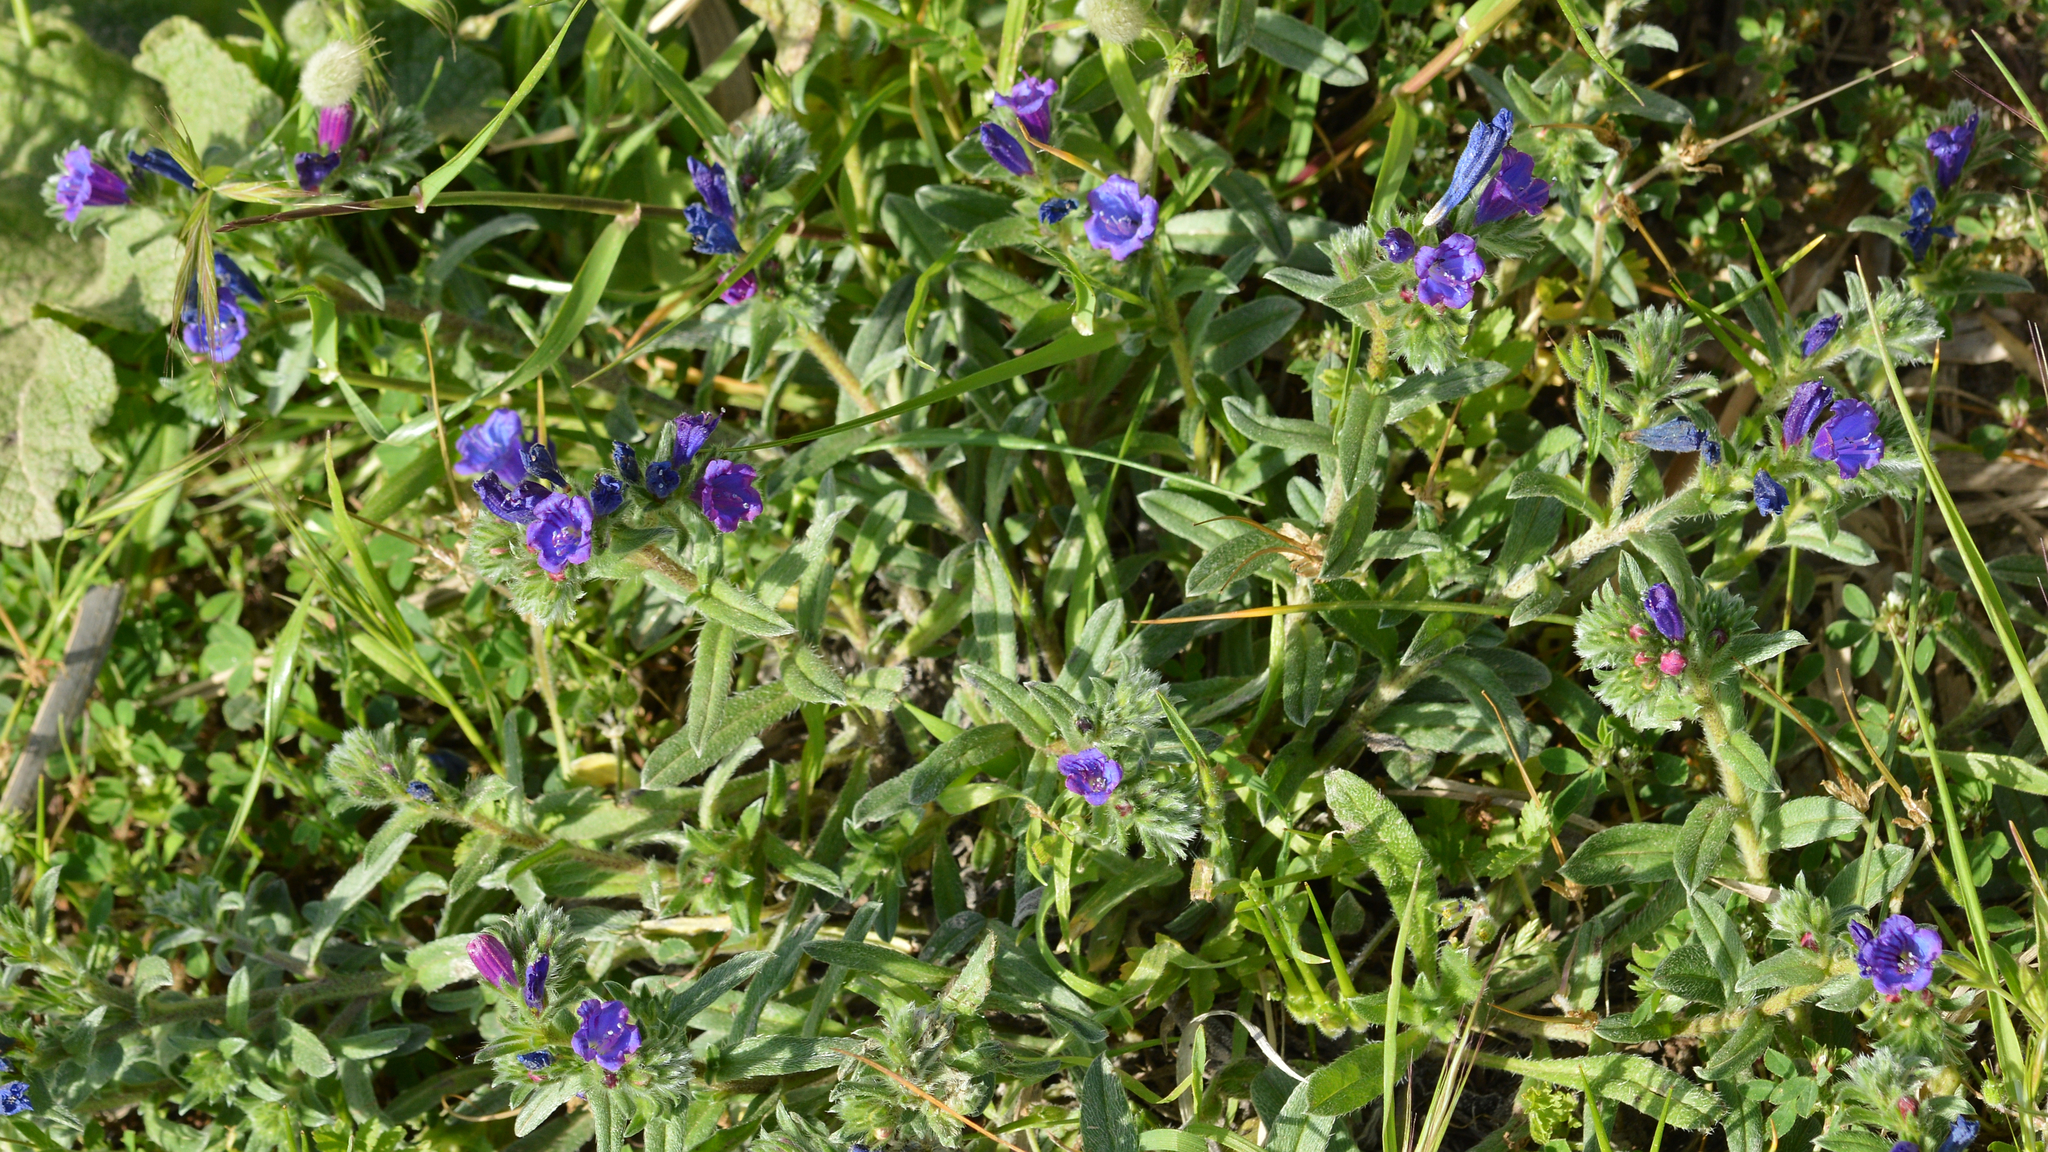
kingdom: Plantae
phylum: Tracheophyta
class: Magnoliopsida
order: Boraginales
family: Boraginaceae
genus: Echium
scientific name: Echium sabulicola
